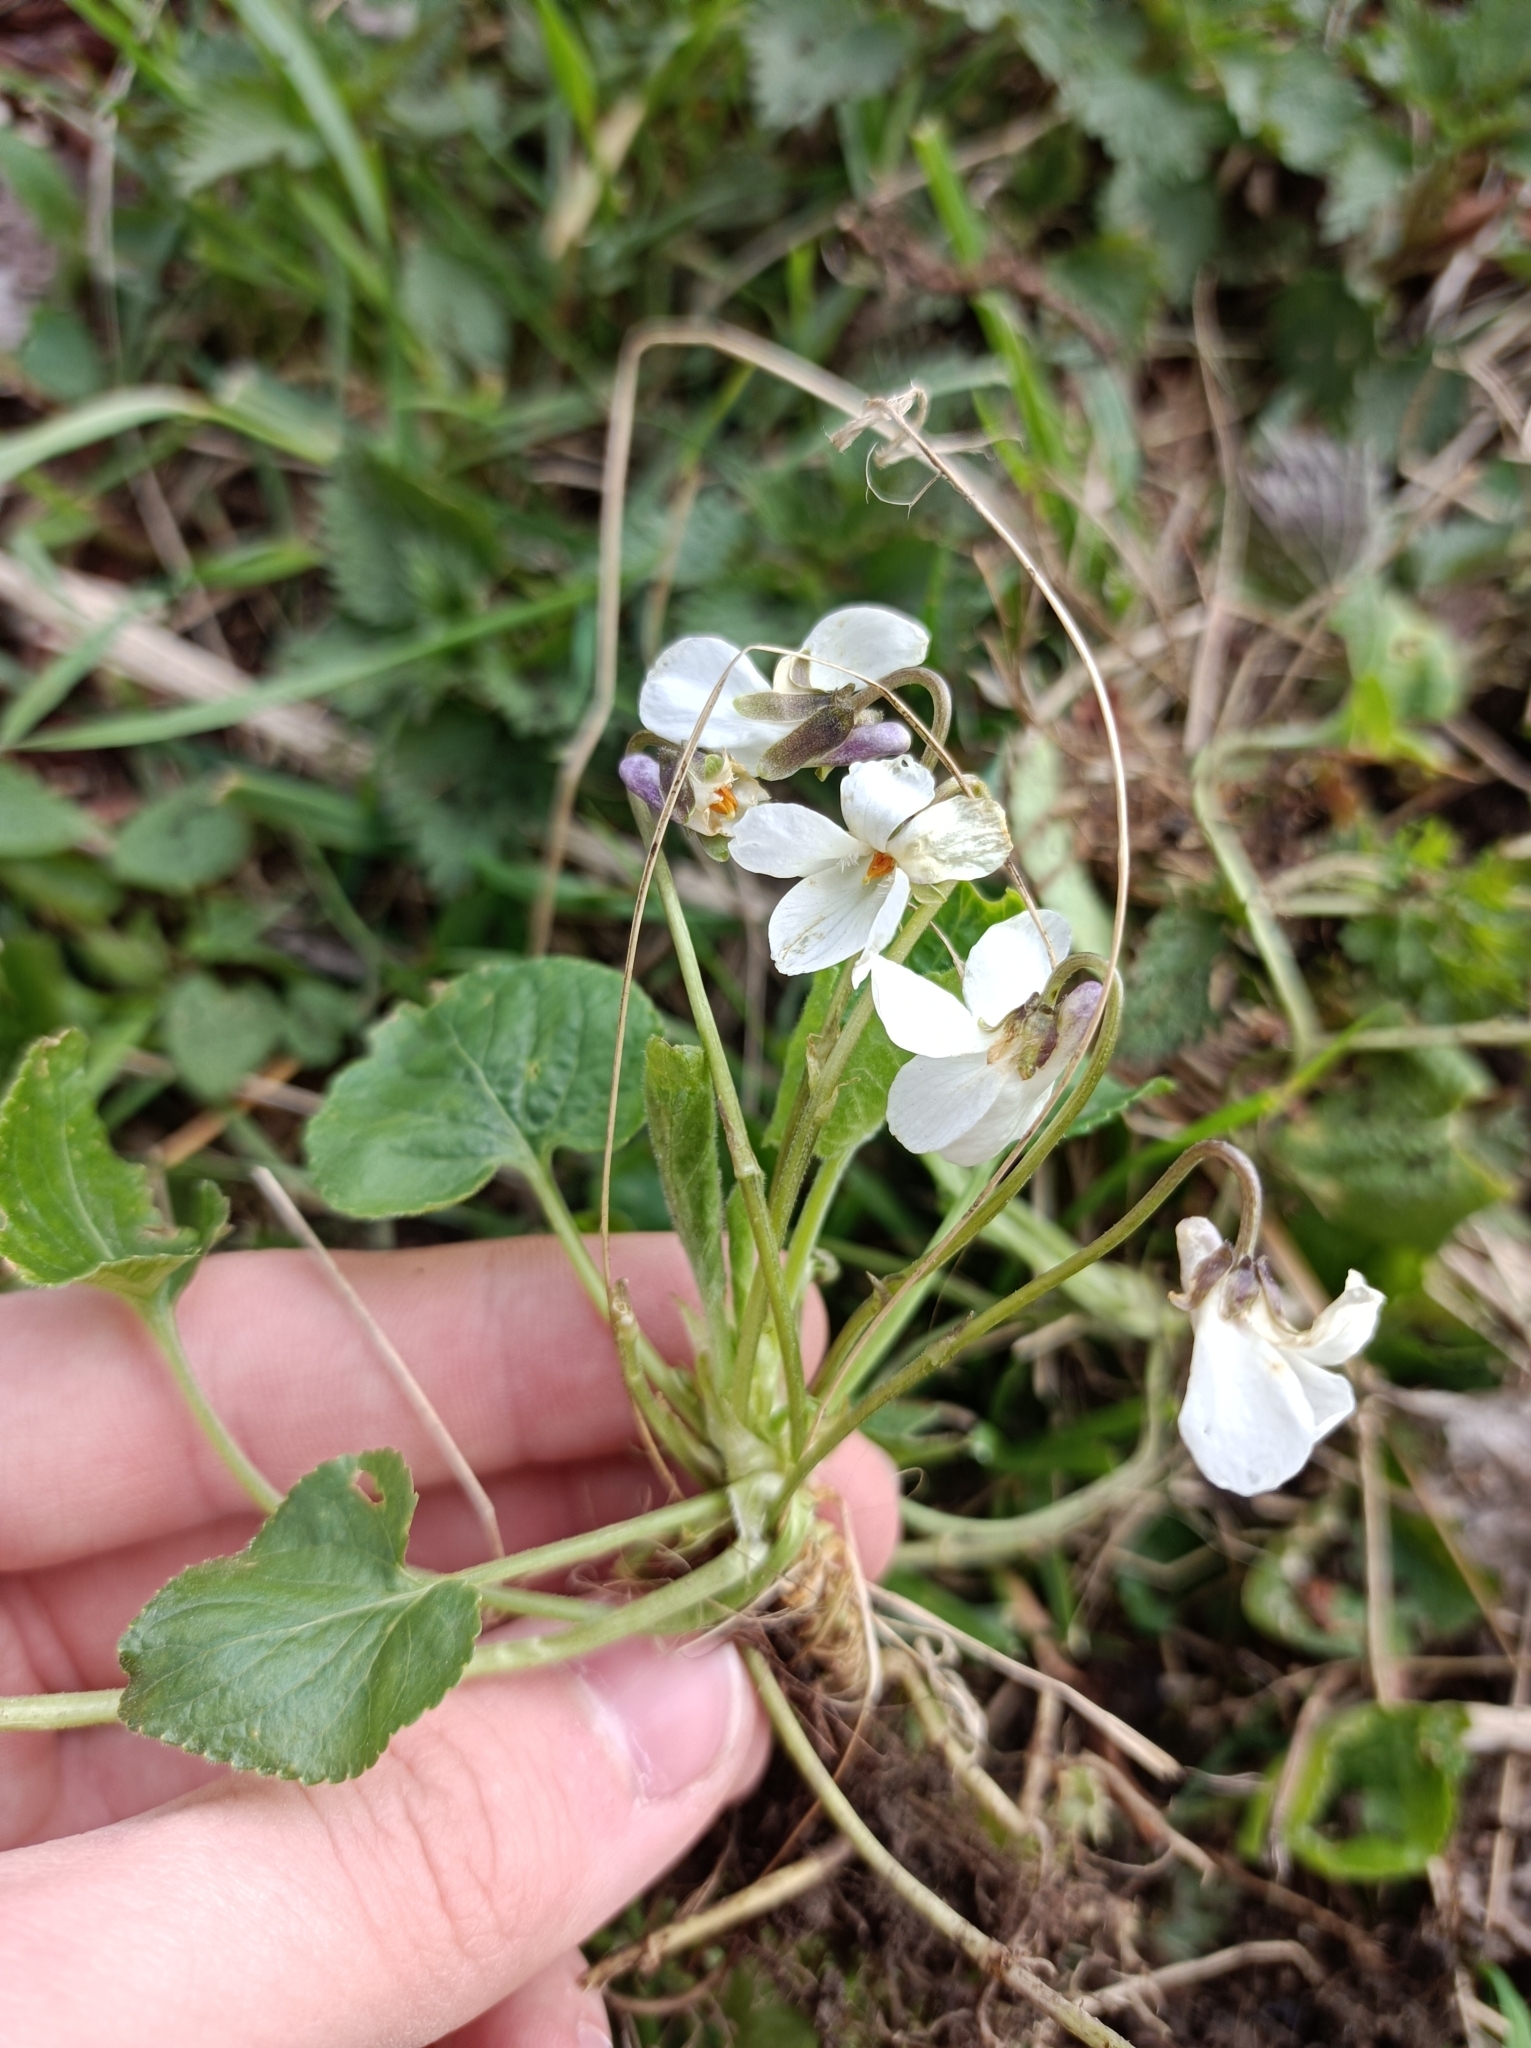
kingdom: Plantae
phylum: Tracheophyta
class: Magnoliopsida
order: Malpighiales
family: Violaceae
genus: Viola
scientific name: Viola odorata
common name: Sweet violet
